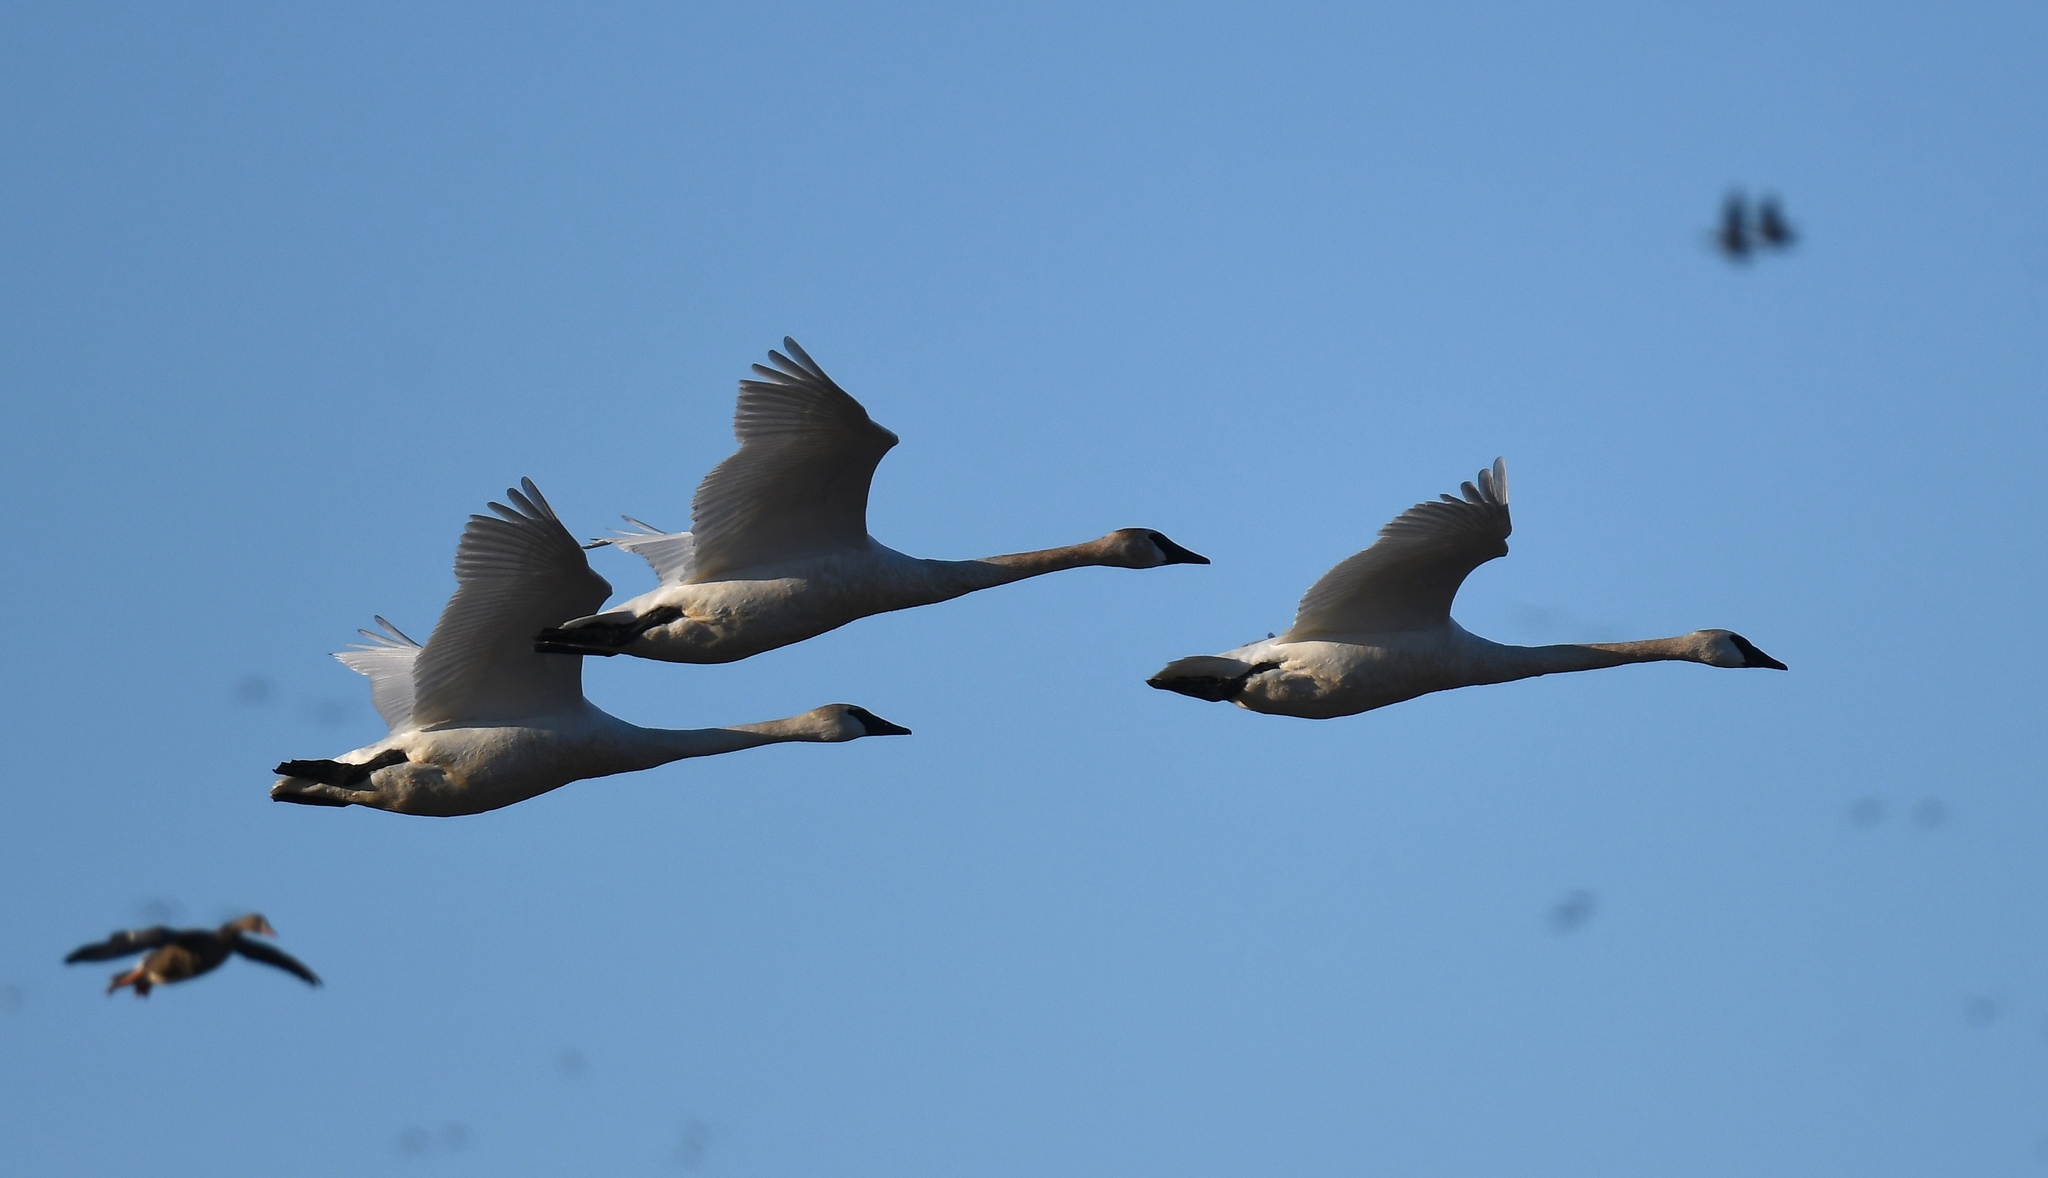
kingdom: Animalia
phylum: Chordata
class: Aves
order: Anseriformes
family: Anatidae
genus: Cygnus
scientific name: Cygnus buccinator
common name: Trumpeter swan
